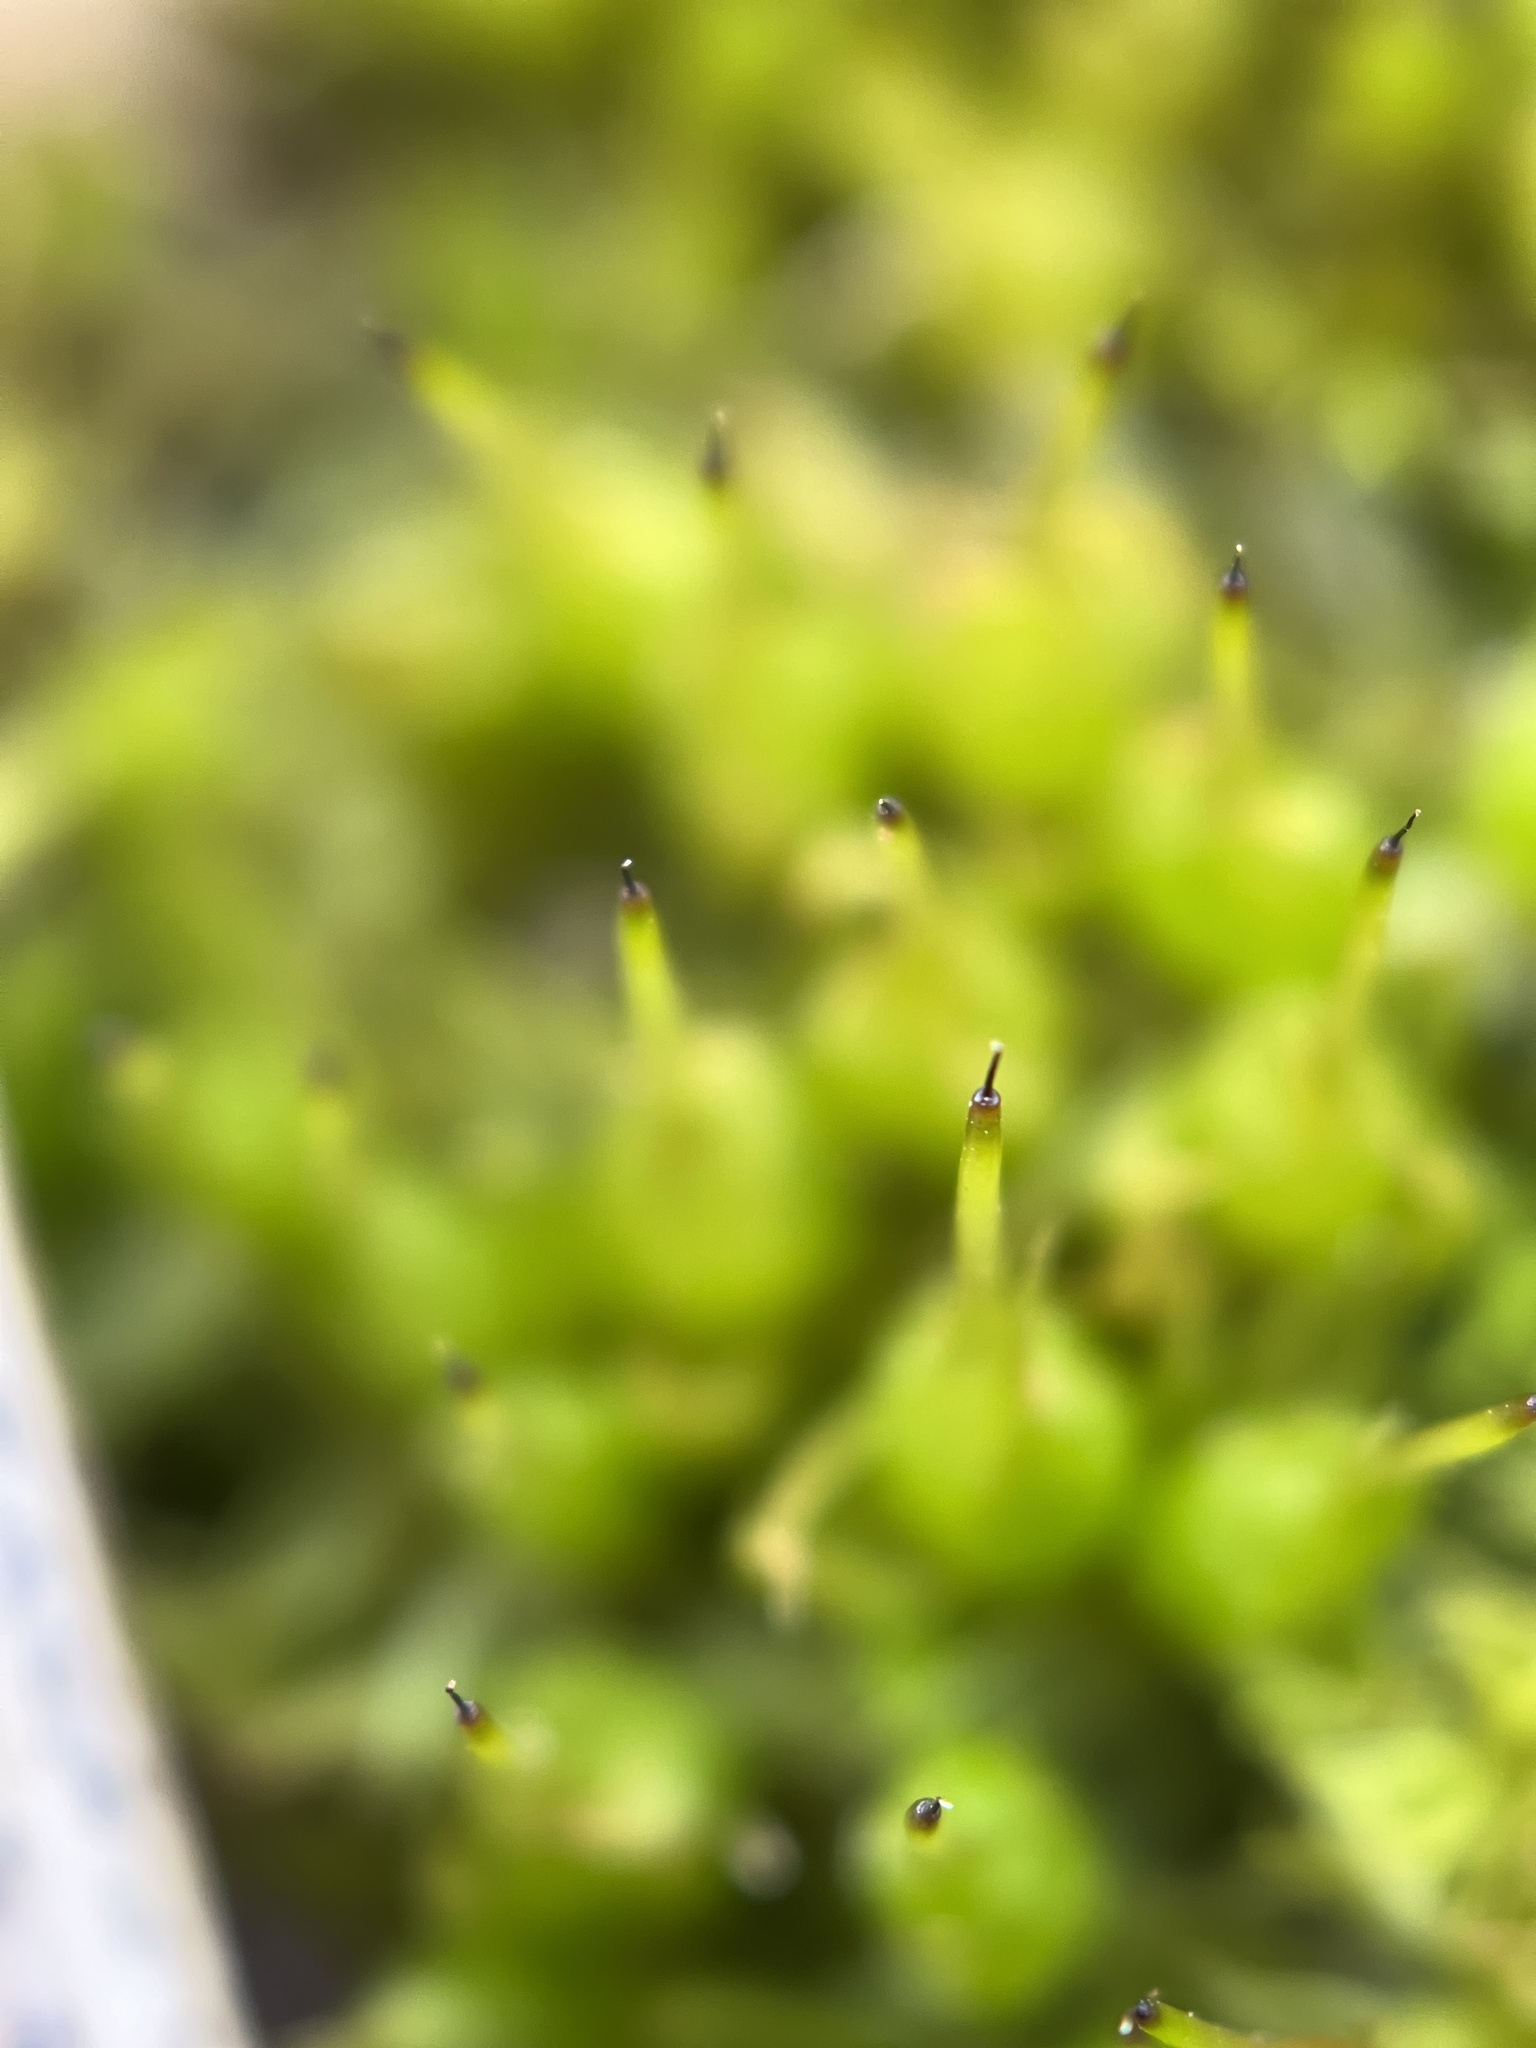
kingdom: Plantae
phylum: Bryophyta
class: Bryopsida
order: Funariales
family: Funariaceae
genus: Funaria
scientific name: Funaria hygrometrica
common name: Common cord moss
